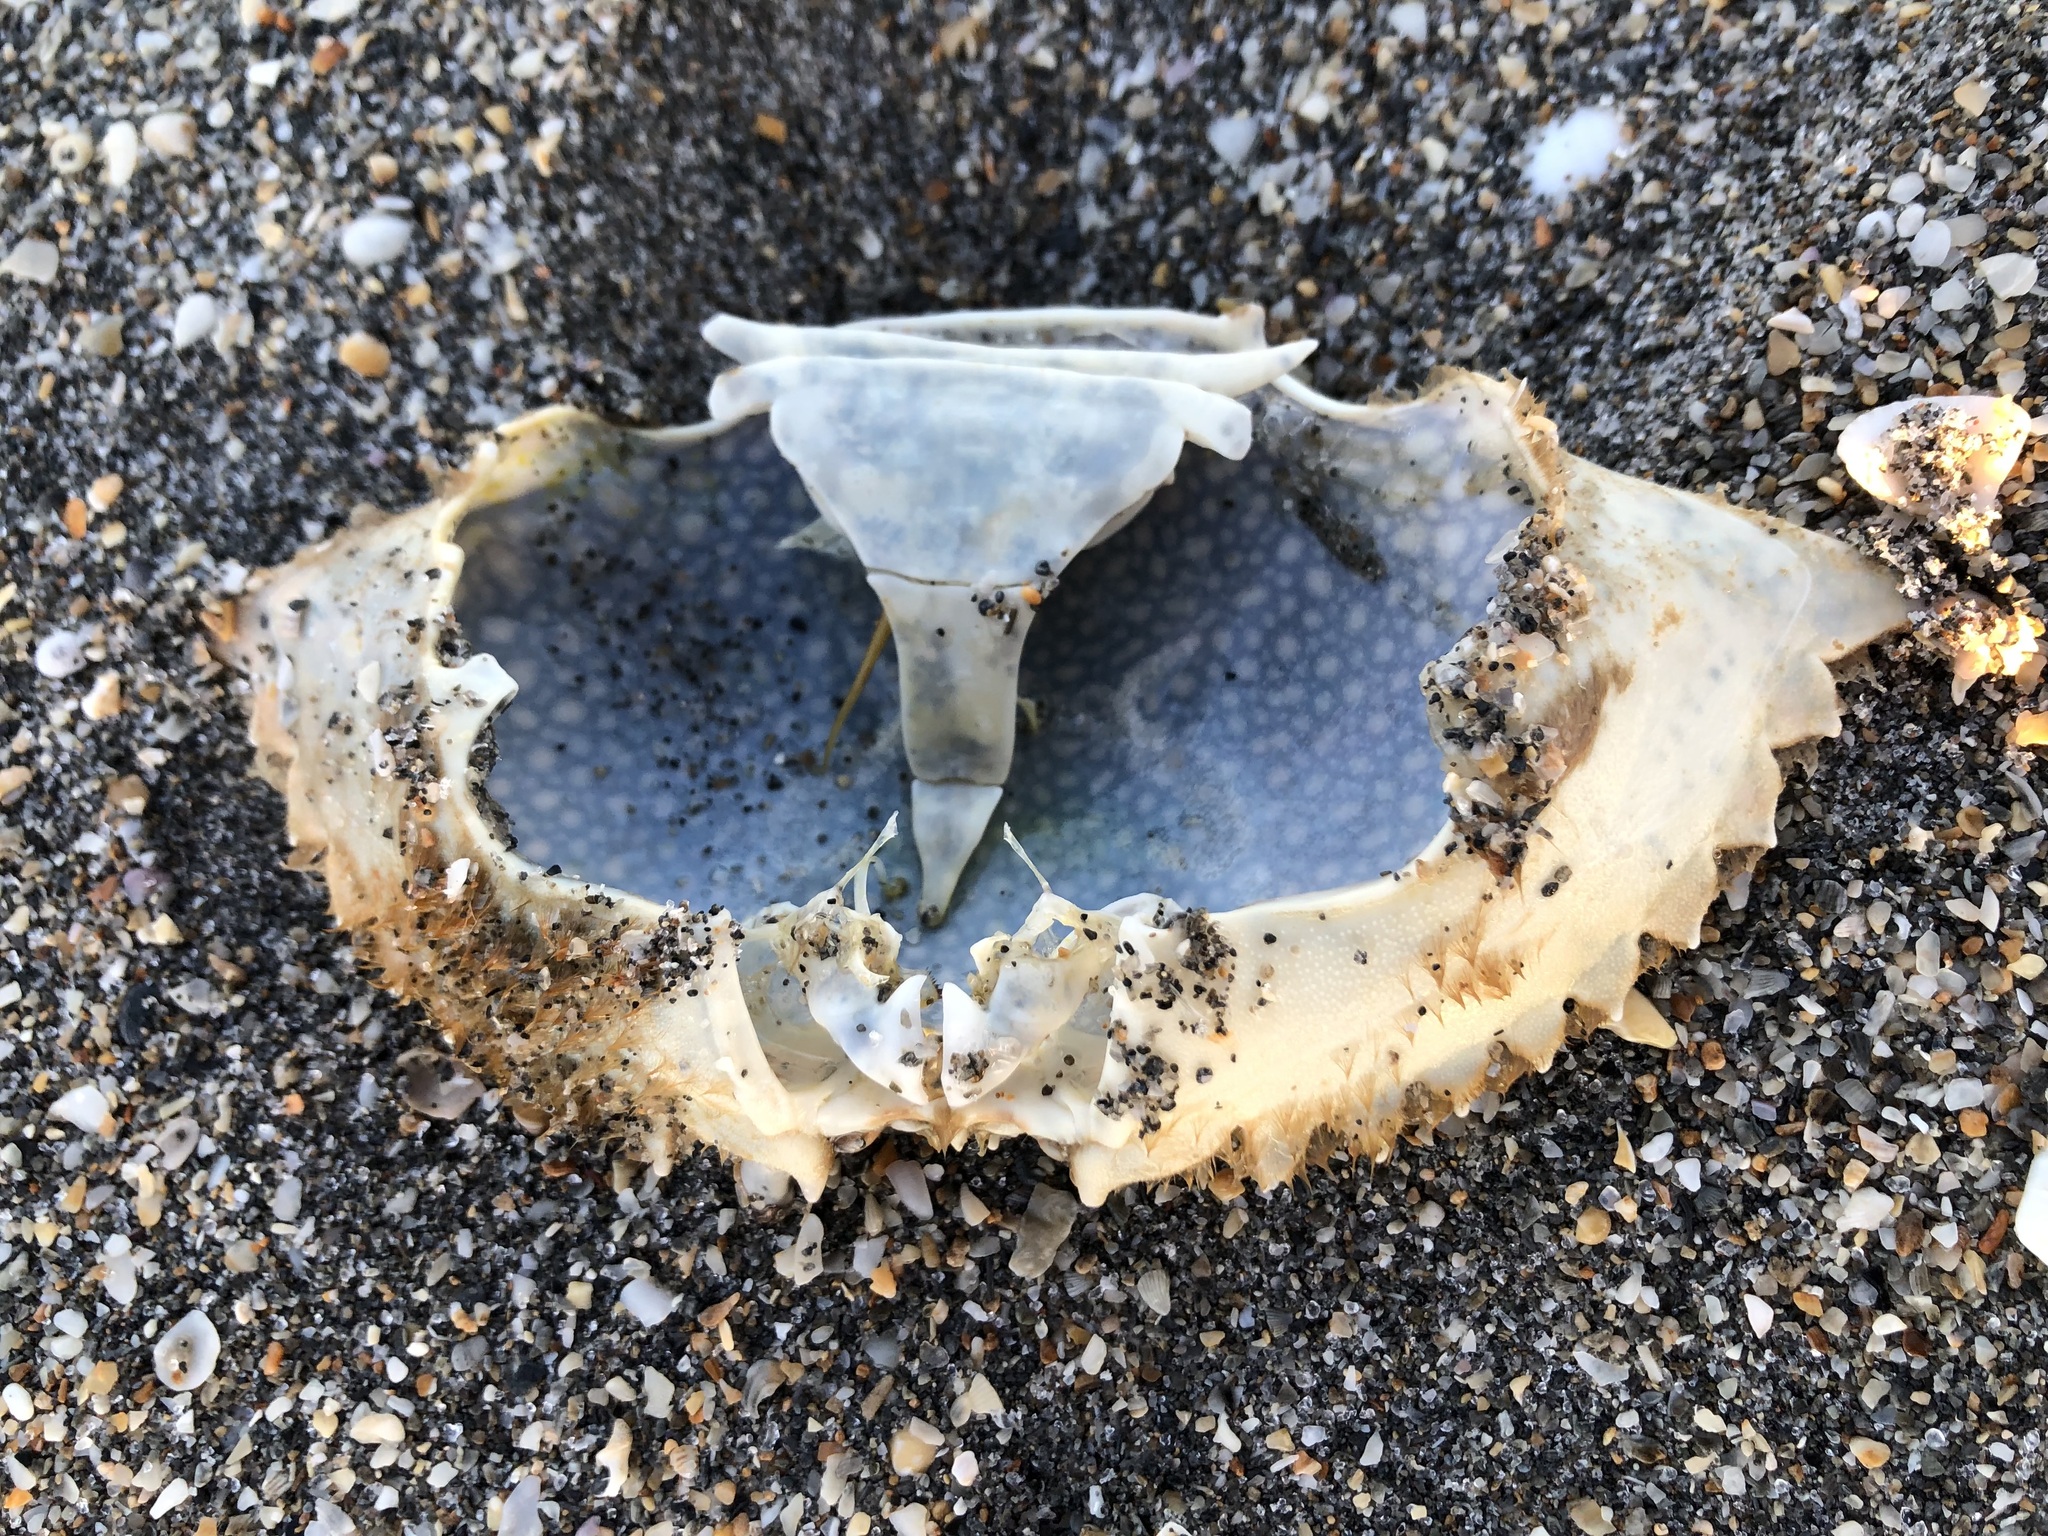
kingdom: Animalia
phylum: Arthropoda
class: Malacostraca
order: Decapoda
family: Portunidae
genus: Arenaeus
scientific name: Arenaeus cribrarius
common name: Speckled crab
